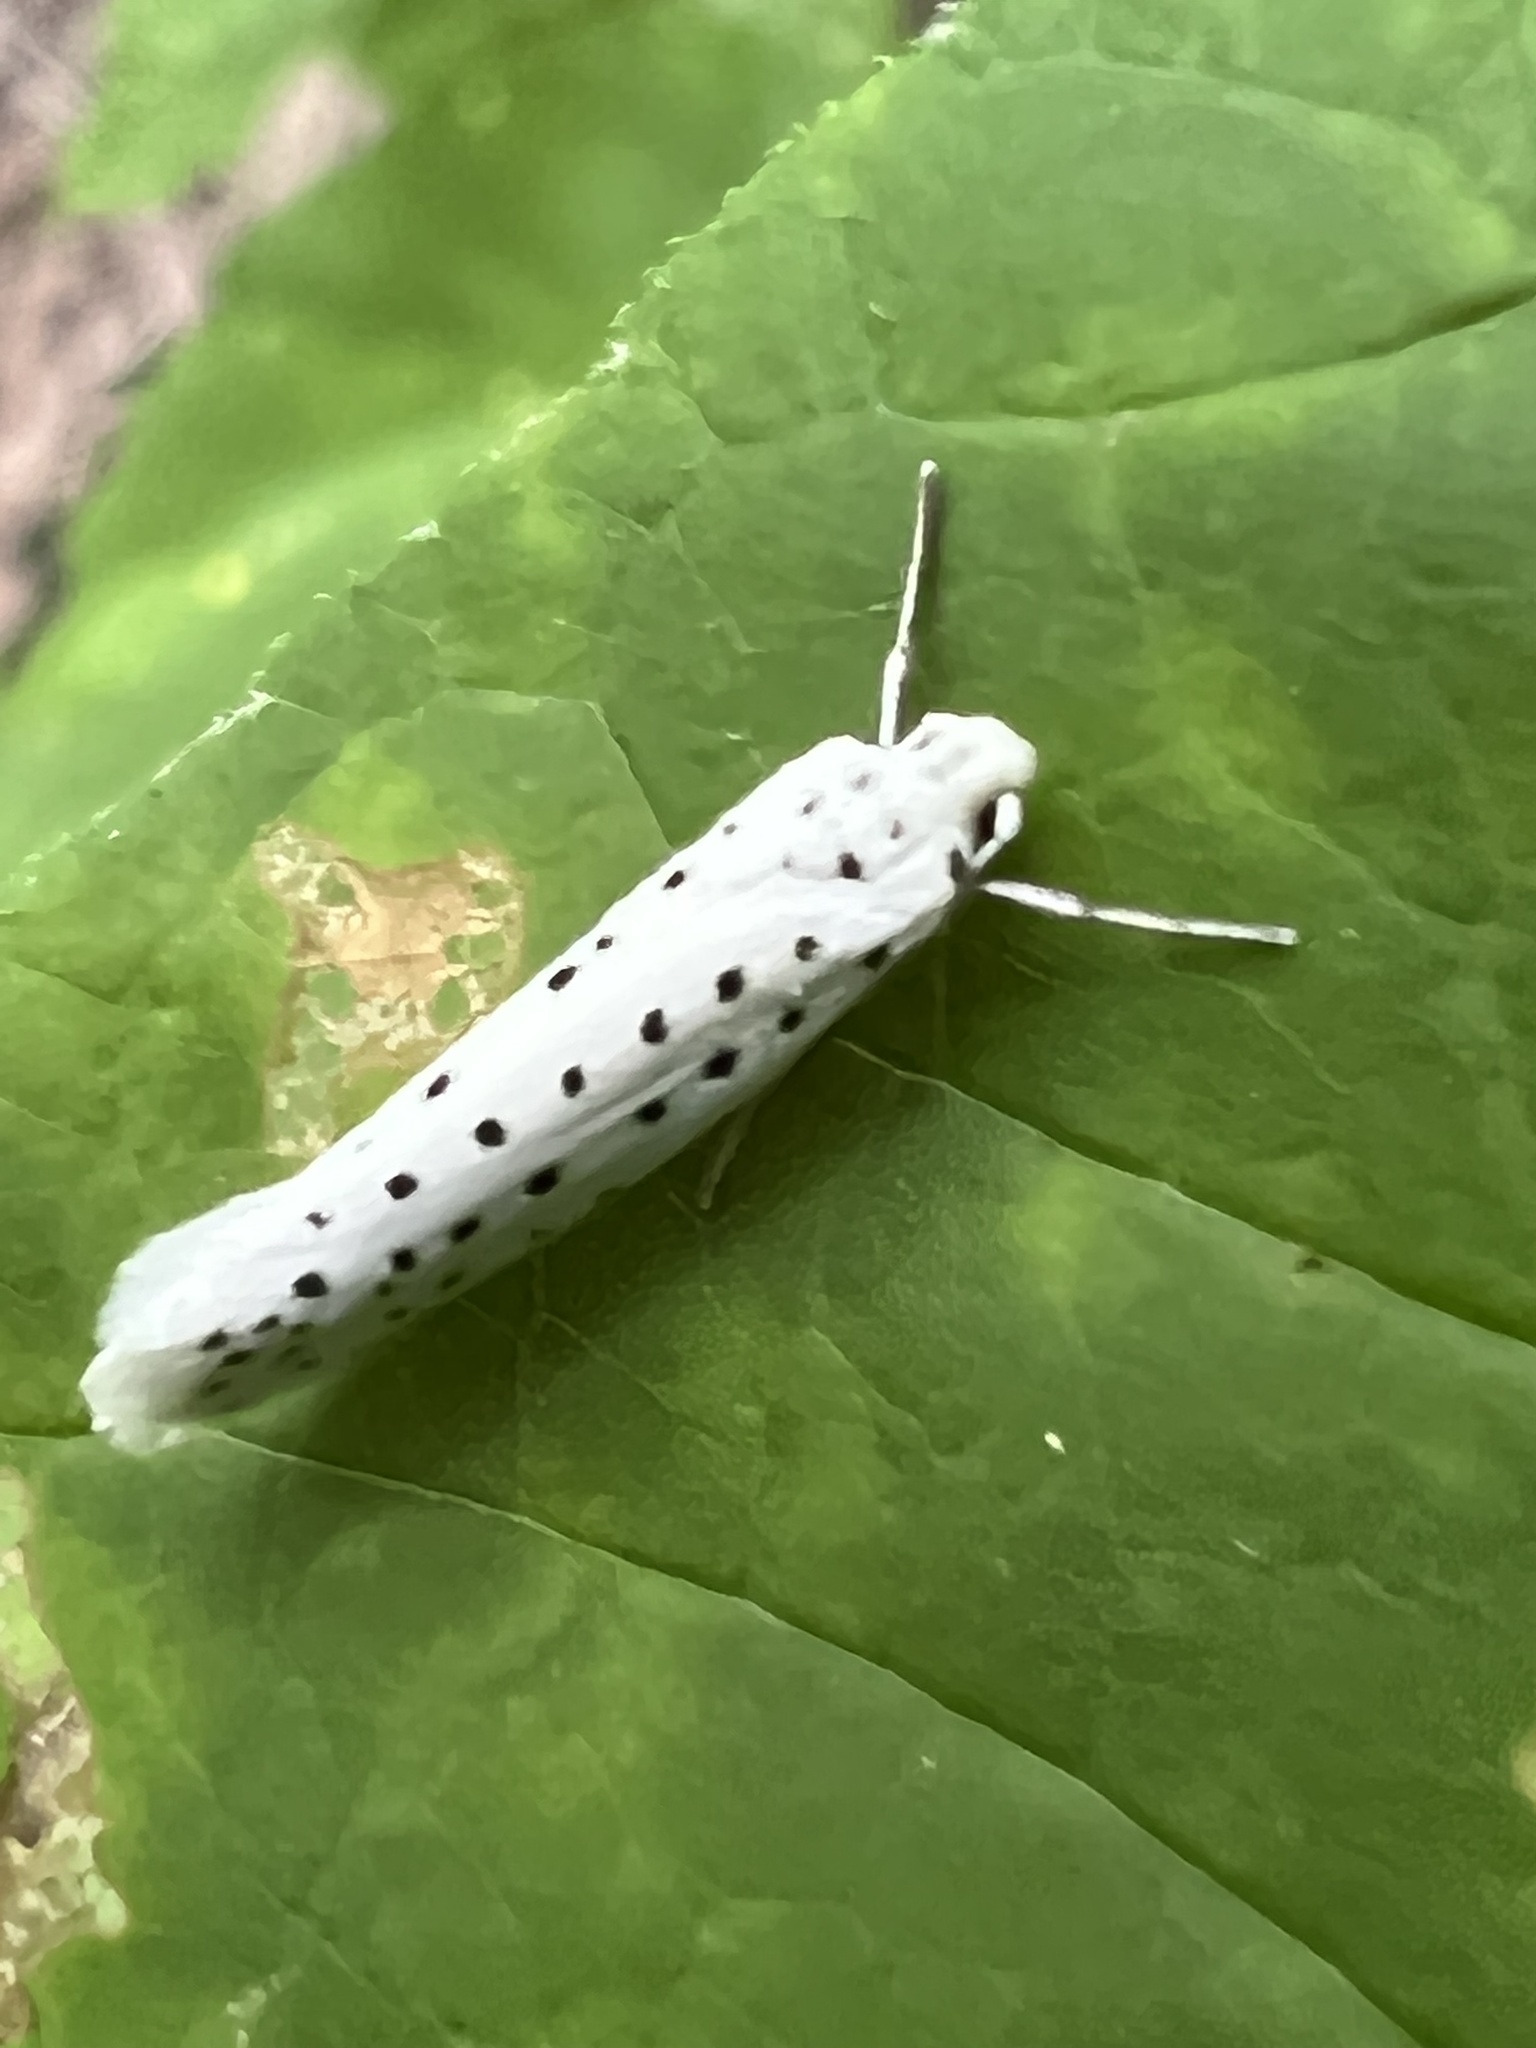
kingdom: Animalia
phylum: Arthropoda
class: Insecta
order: Lepidoptera
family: Yponomeutidae
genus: Yponomeuta
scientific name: Yponomeuta multipunctella
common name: American ermine moth
